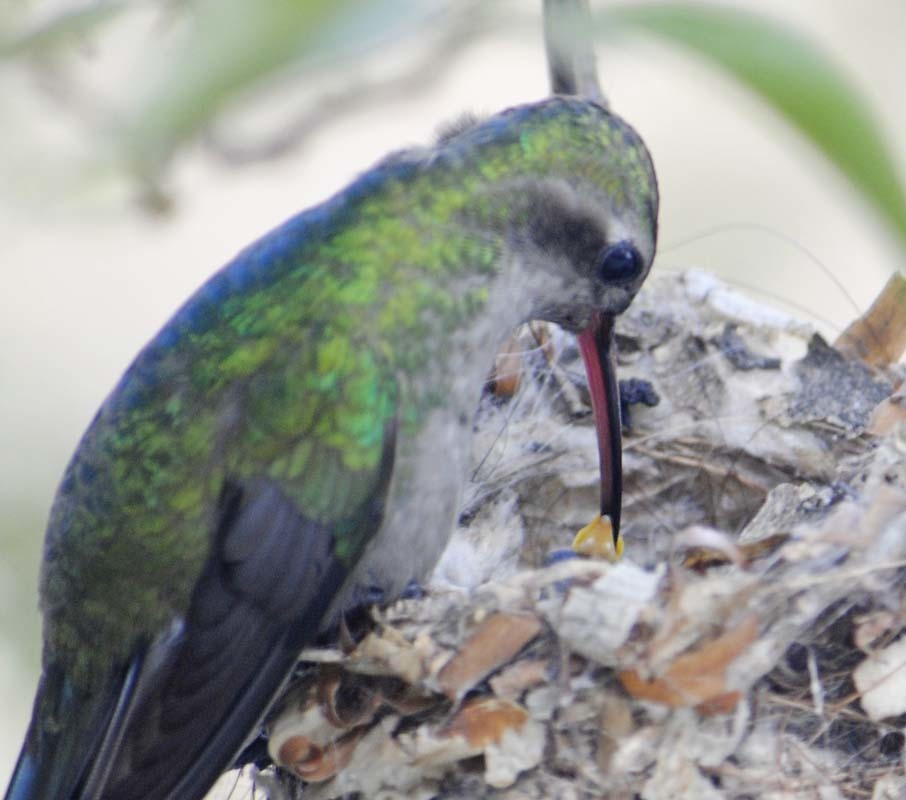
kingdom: Animalia
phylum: Chordata
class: Aves
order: Apodiformes
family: Trochilidae
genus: Cynanthus
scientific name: Cynanthus latirostris
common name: Broad-billed hummingbird
